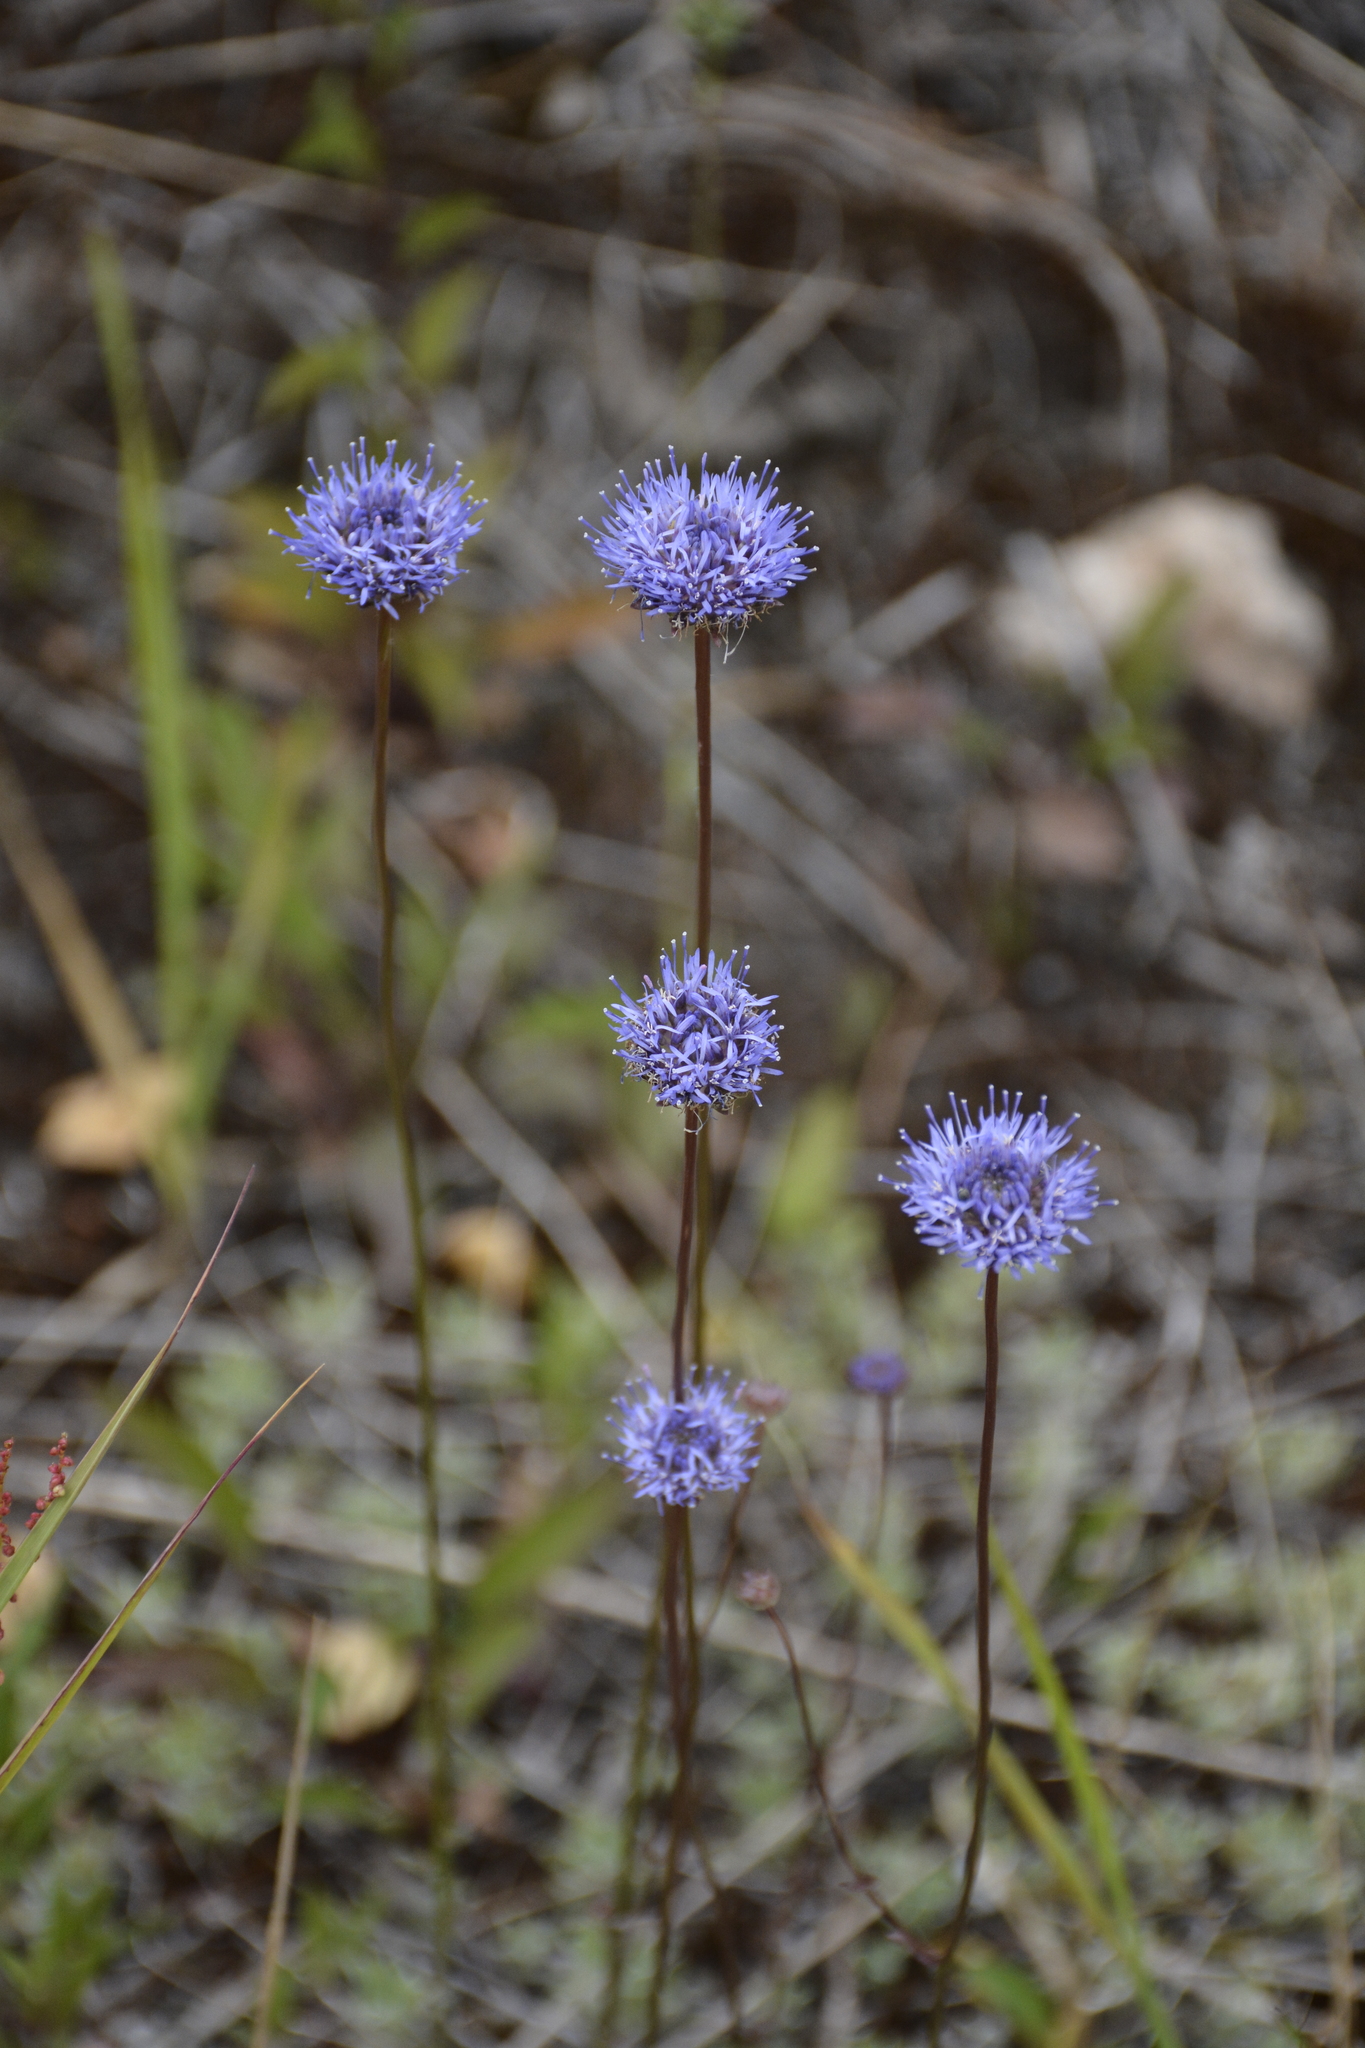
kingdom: Plantae
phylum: Tracheophyta
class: Magnoliopsida
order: Asterales
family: Campanulaceae
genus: Jasione
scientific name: Jasione montana
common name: Sheep's-bit
